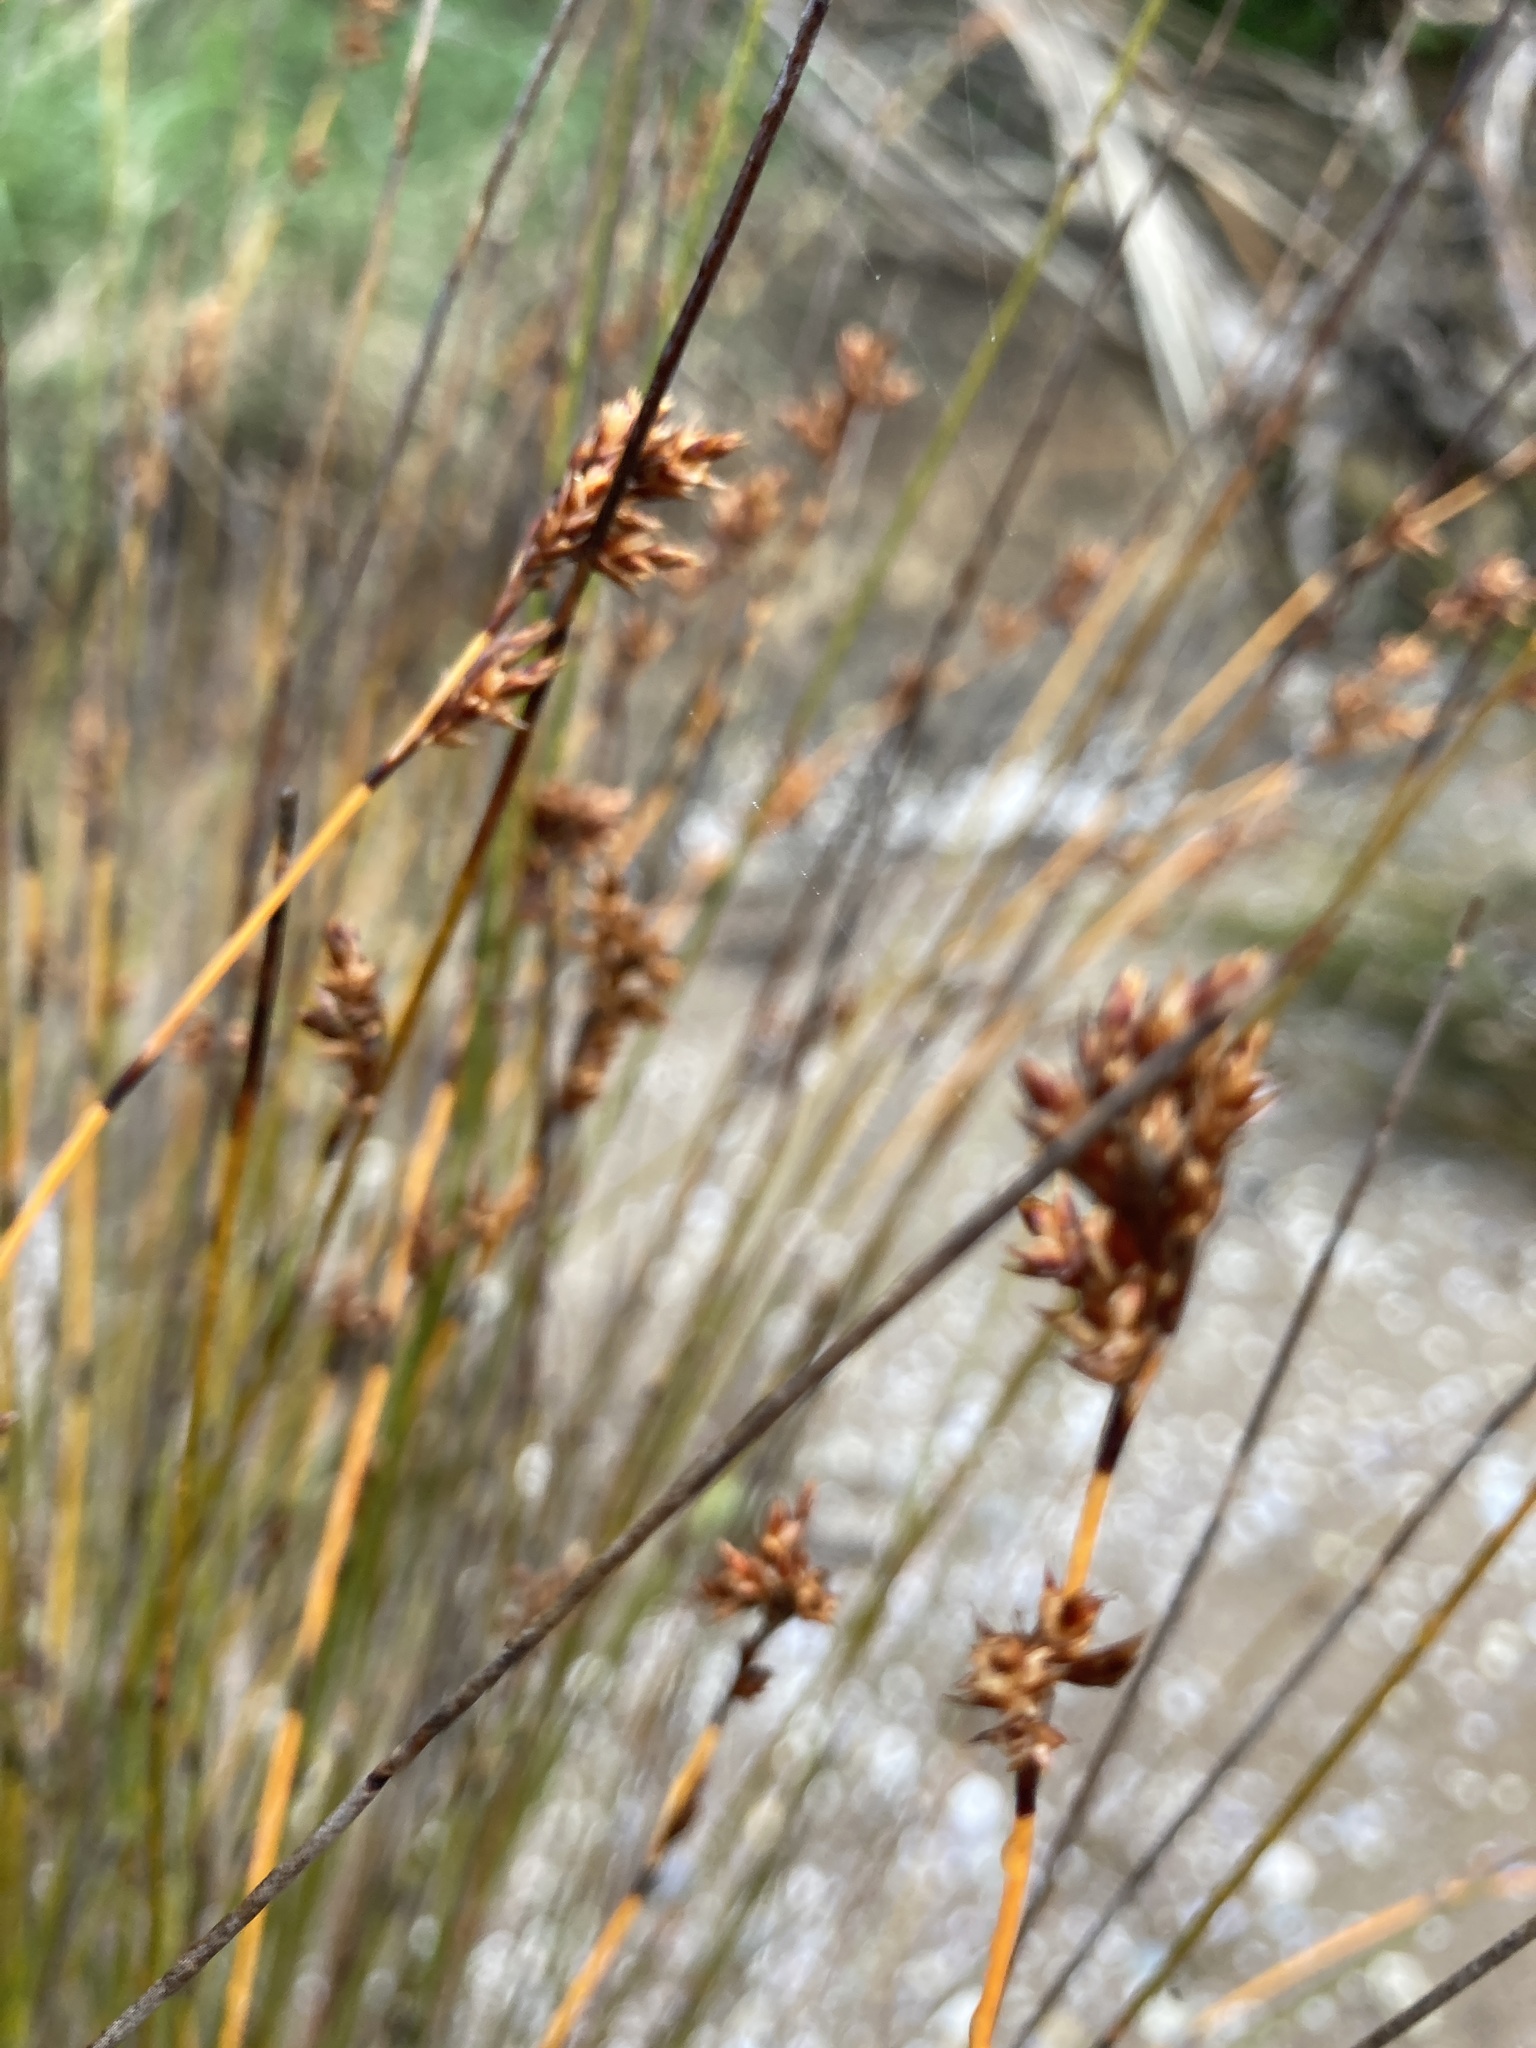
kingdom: Plantae
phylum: Tracheophyta
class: Liliopsida
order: Poales
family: Restionaceae
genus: Apodasmia
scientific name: Apodasmia similis
